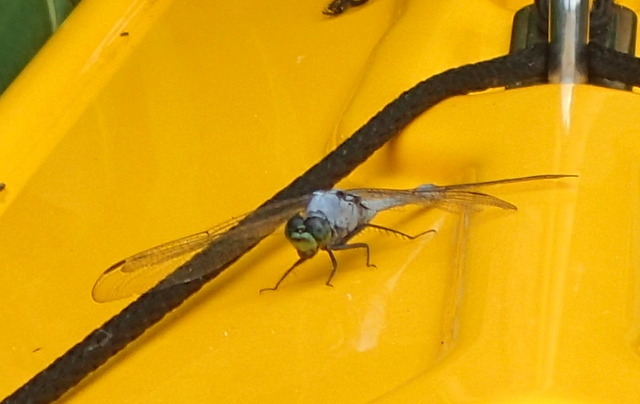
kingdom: Animalia
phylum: Arthropoda
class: Insecta
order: Odonata
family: Libellulidae
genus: Erythemis
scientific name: Erythemis simplicicollis
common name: Eastern pondhawk
